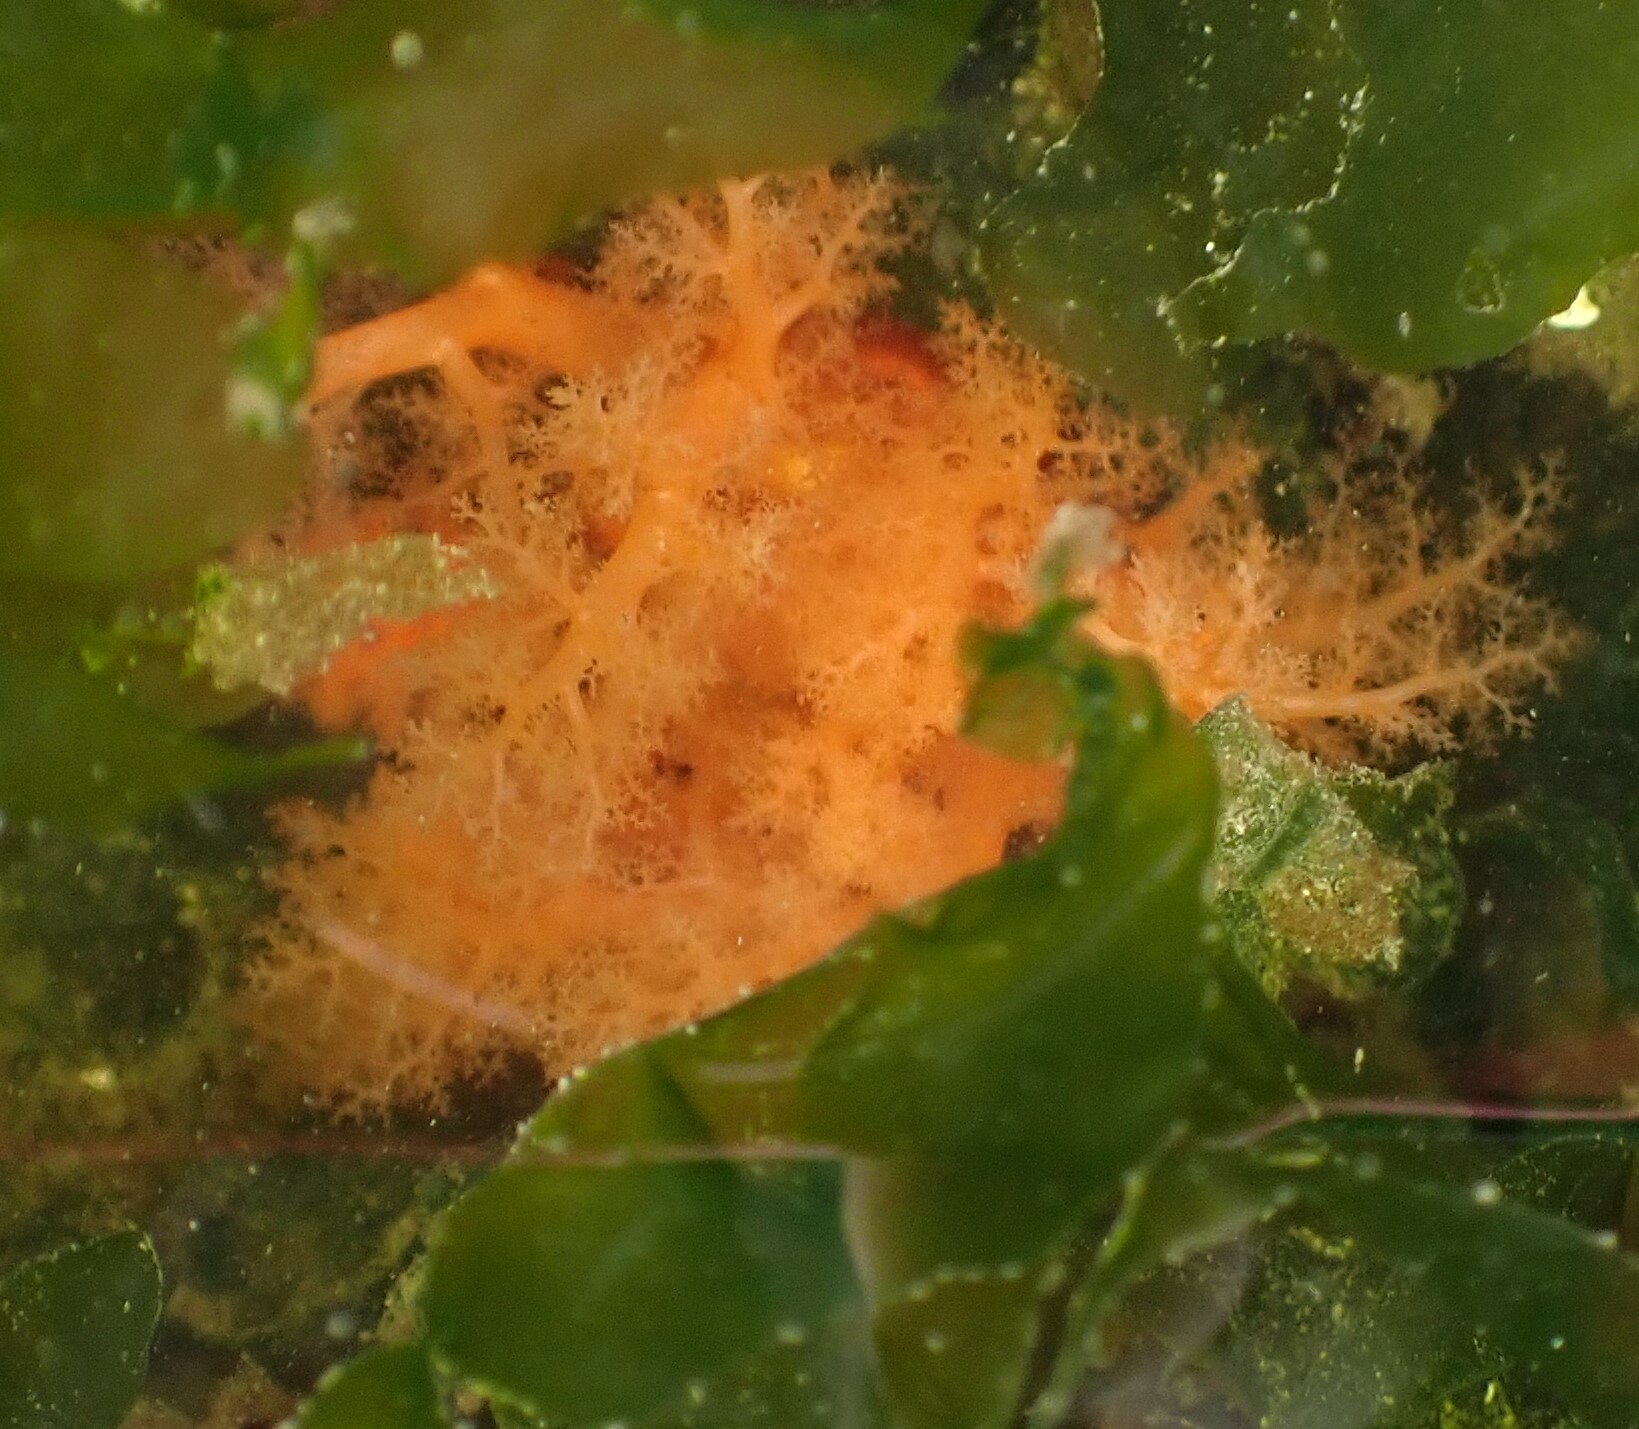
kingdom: Animalia
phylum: Echinodermata
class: Holothuroidea
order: Dendrochirotida
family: Cucumariidae
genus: Cucumaria
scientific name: Cucumaria miniata
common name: Orange sea cucumber
